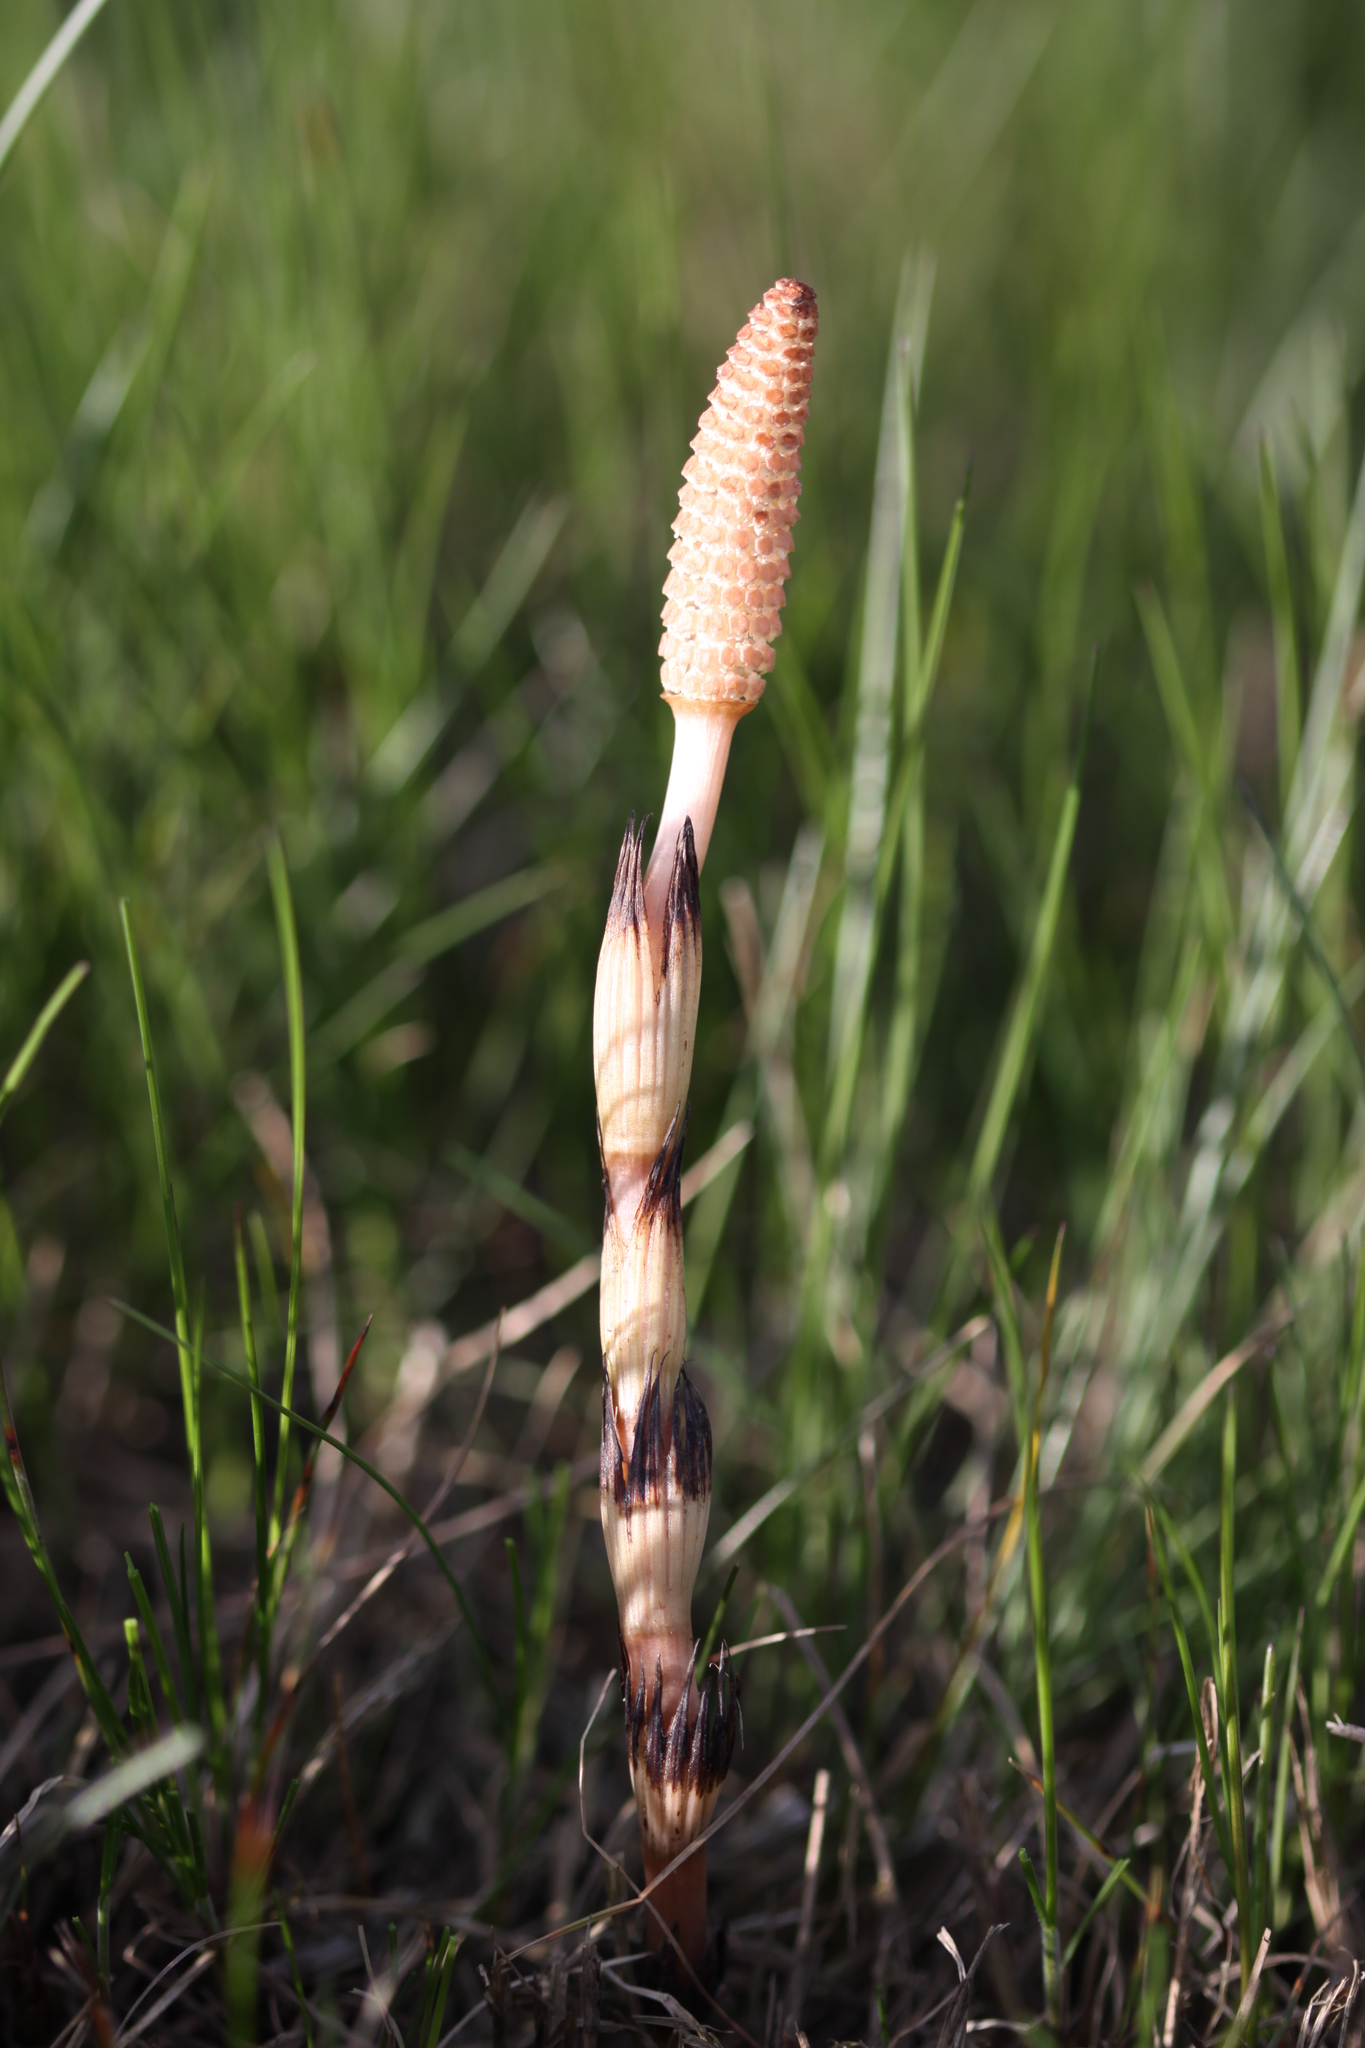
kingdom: Plantae
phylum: Tracheophyta
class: Polypodiopsida
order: Equisetales
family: Equisetaceae
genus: Equisetum
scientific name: Equisetum arvense
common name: Field horsetail
